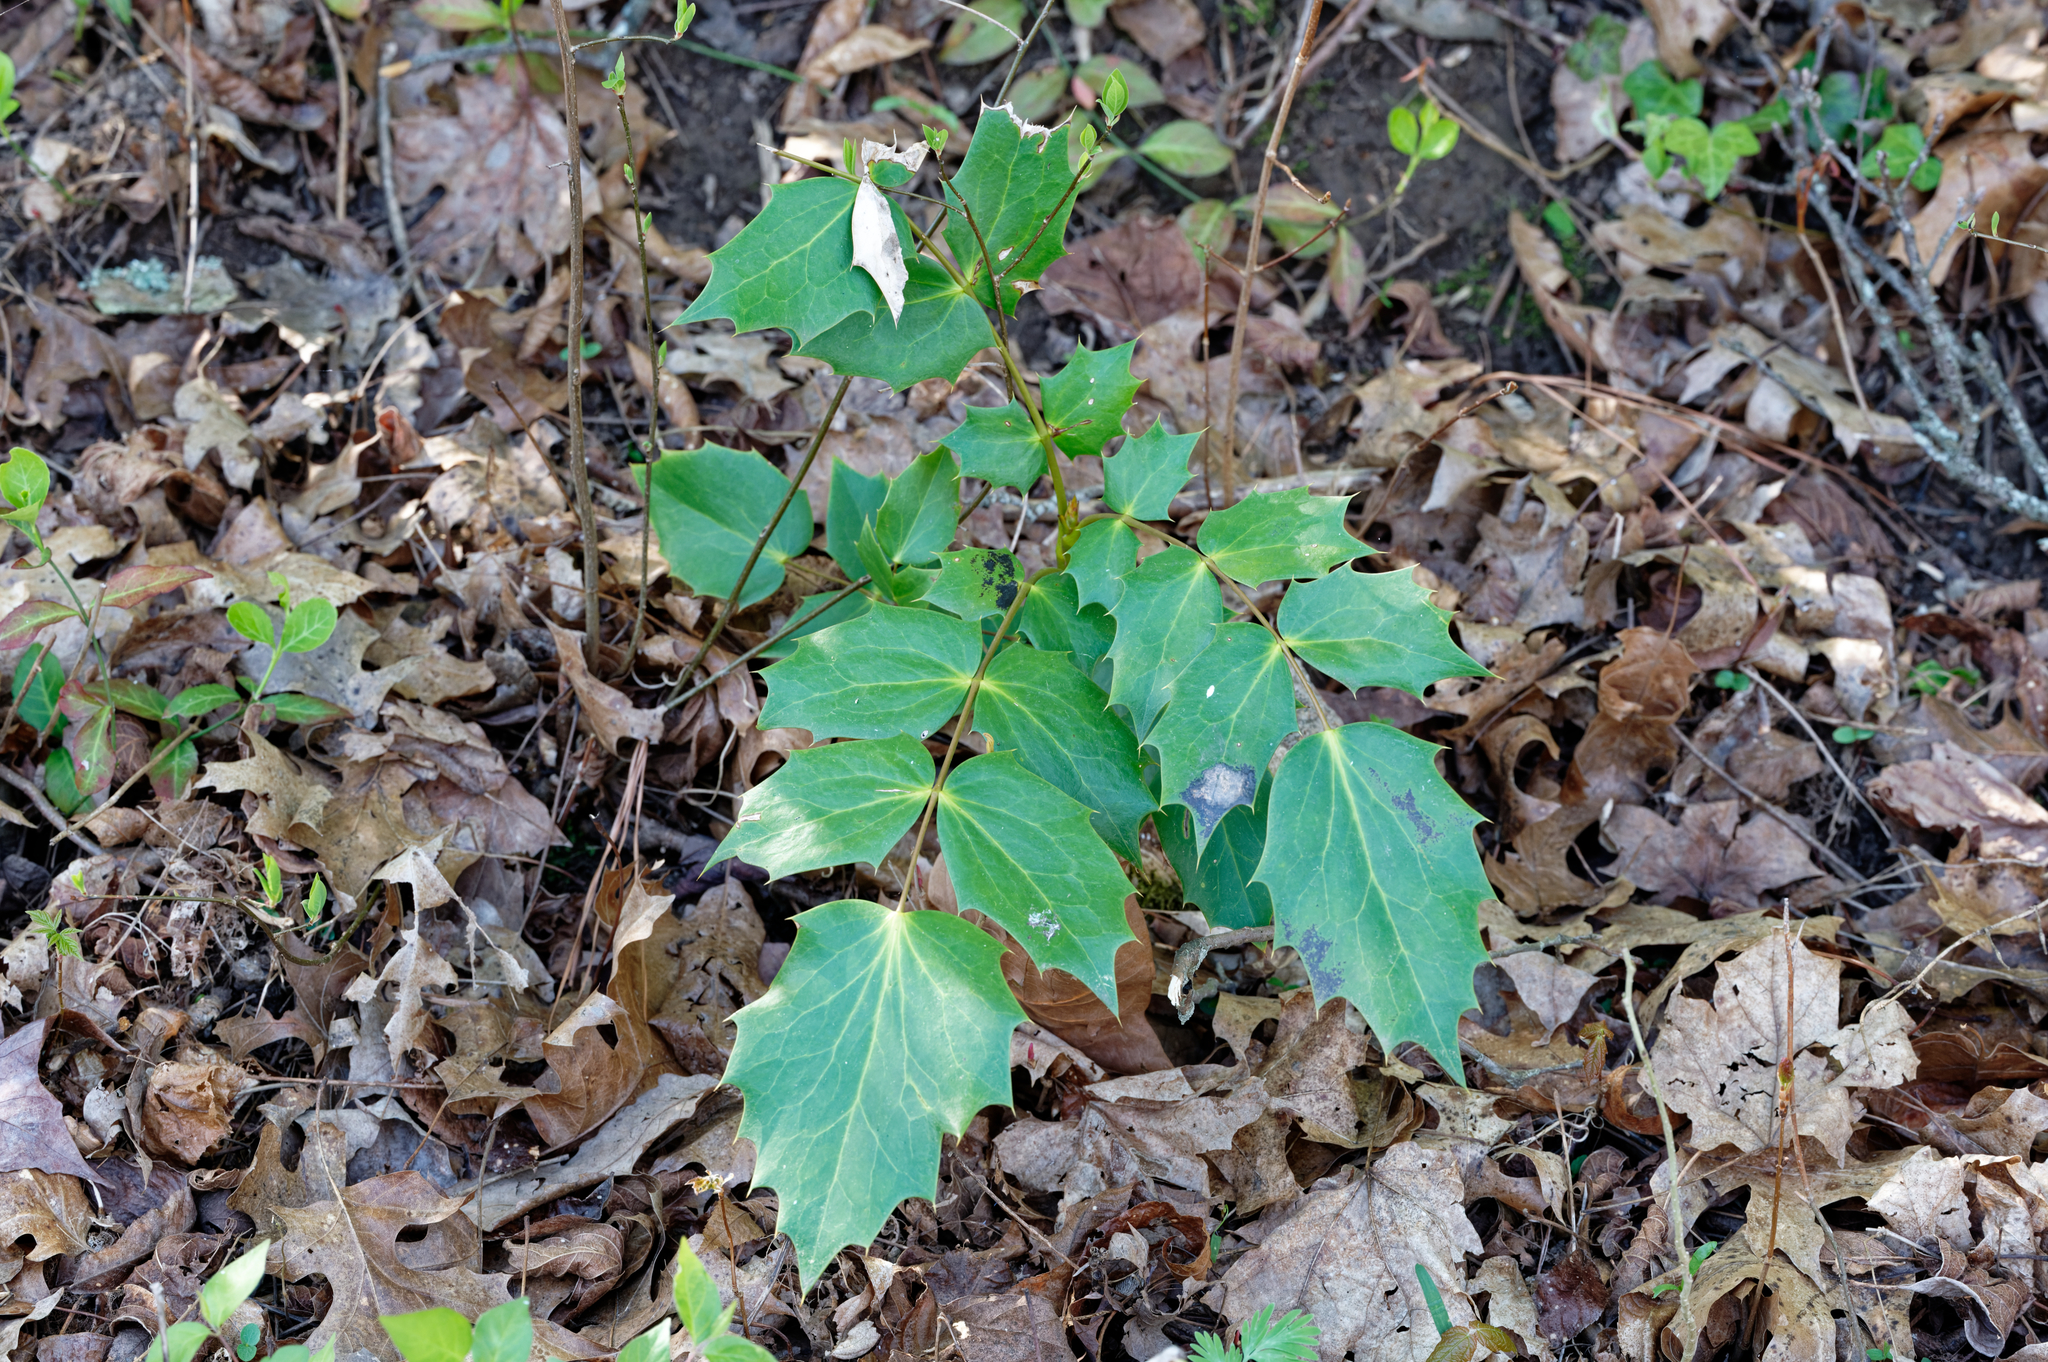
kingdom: Plantae
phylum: Tracheophyta
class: Magnoliopsida
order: Ranunculales
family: Berberidaceae
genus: Mahonia
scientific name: Mahonia bealei
